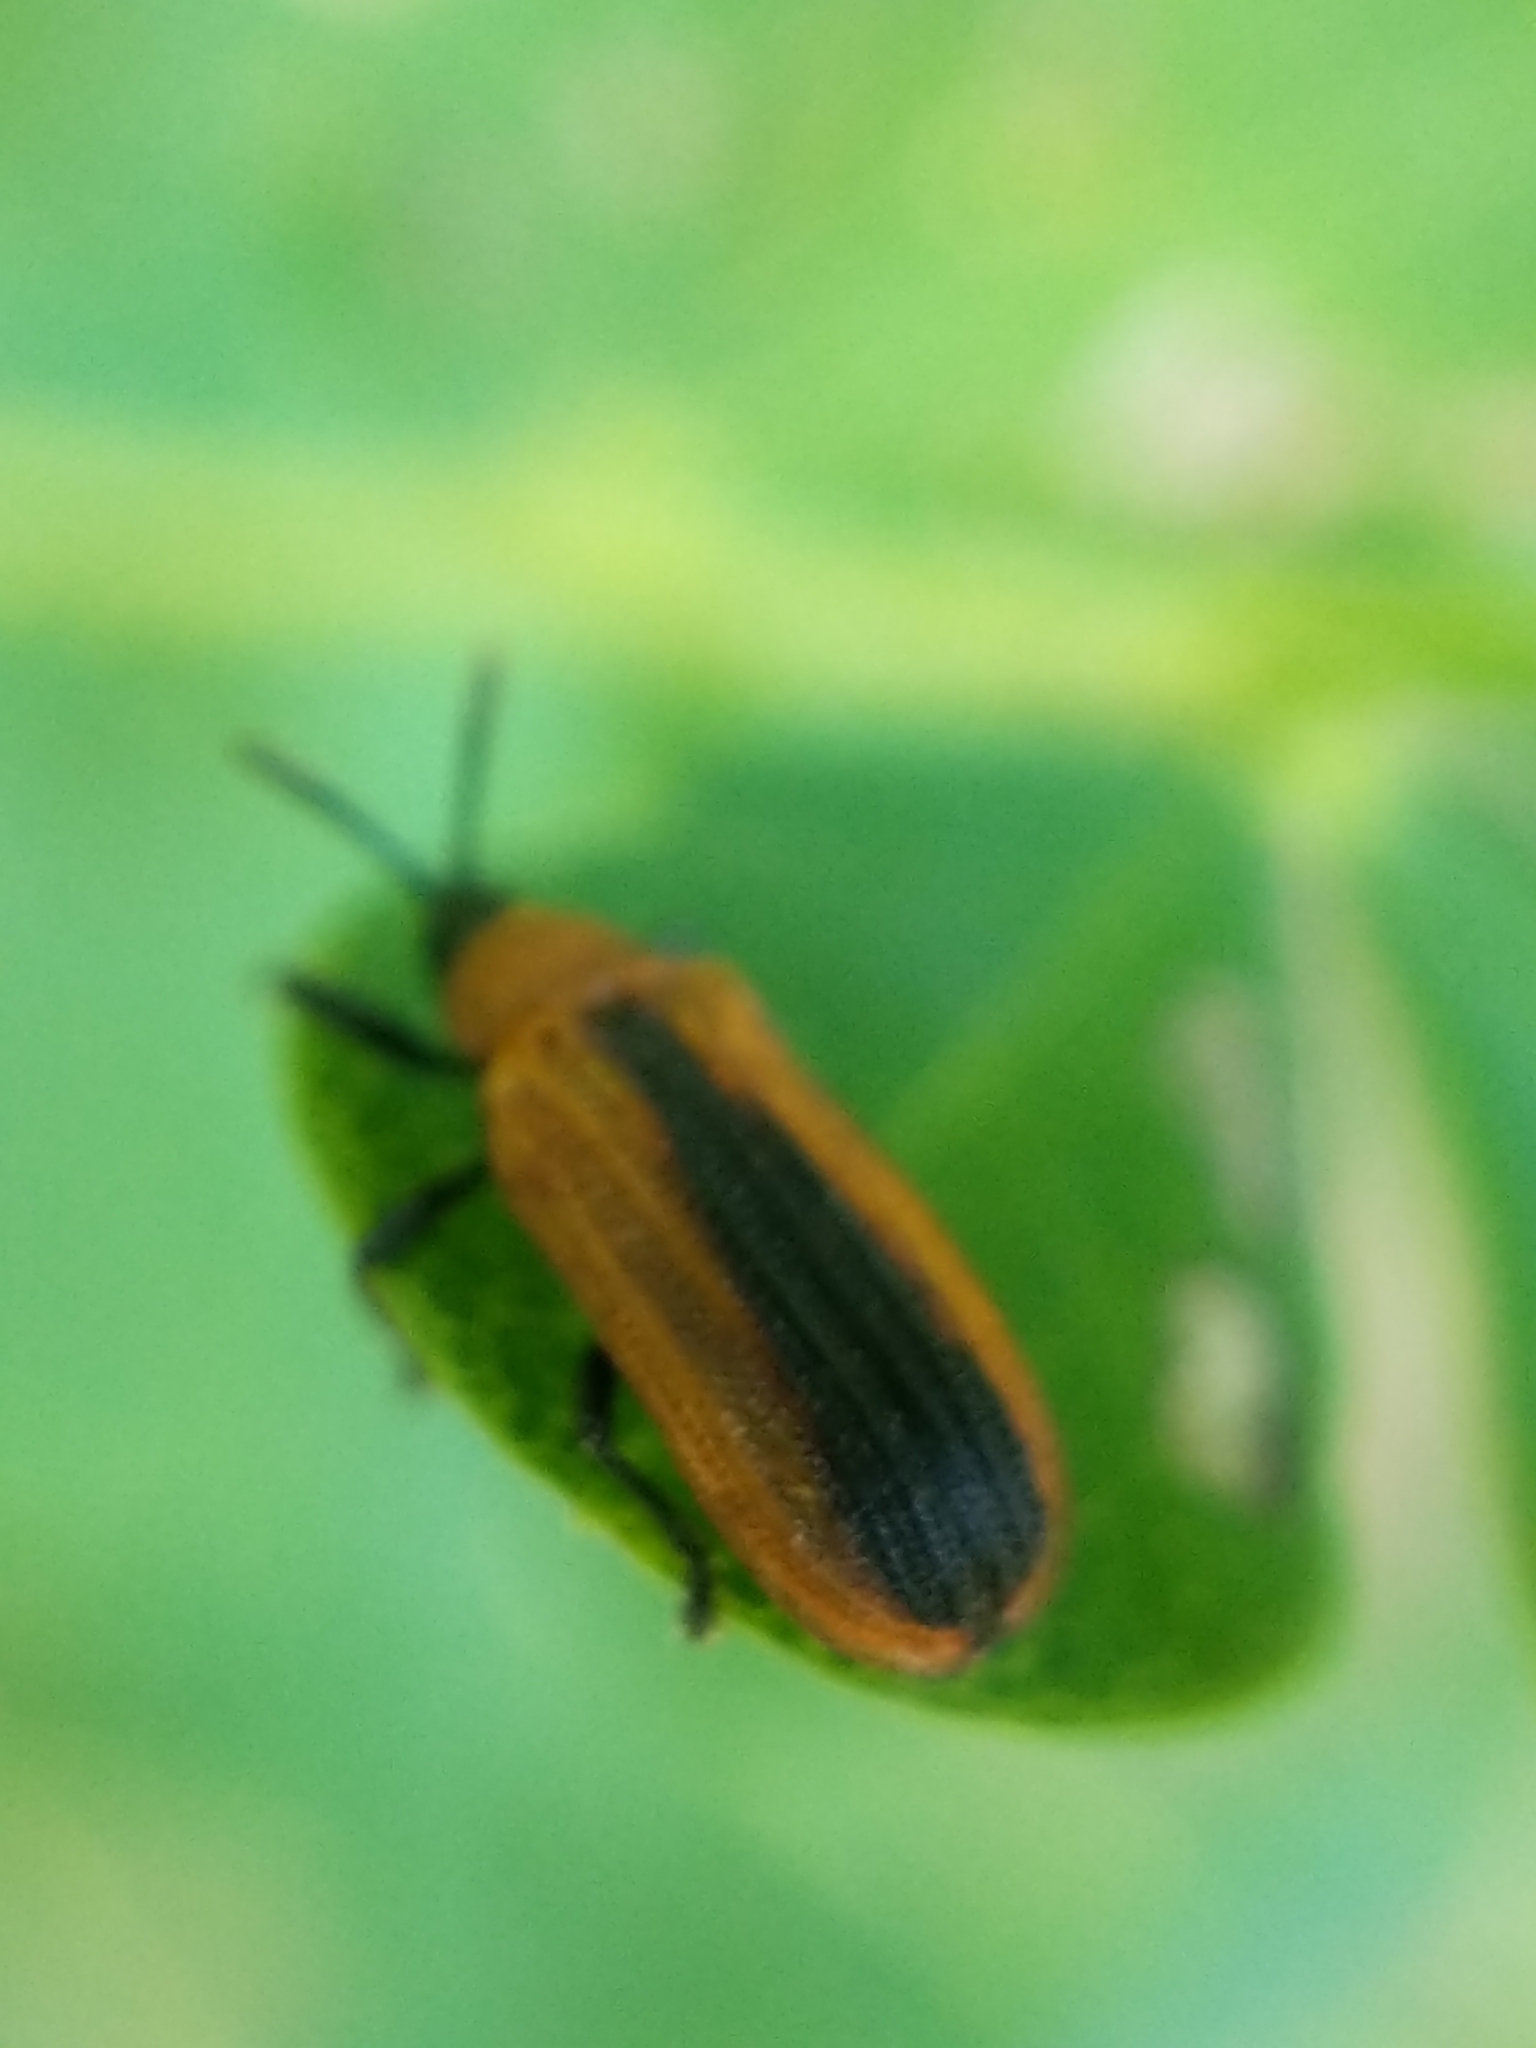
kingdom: Animalia
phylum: Arthropoda
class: Insecta
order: Coleoptera
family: Chrysomelidae
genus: Odontota
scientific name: Odontota dorsalis
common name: Locust leaf-miner beetle
